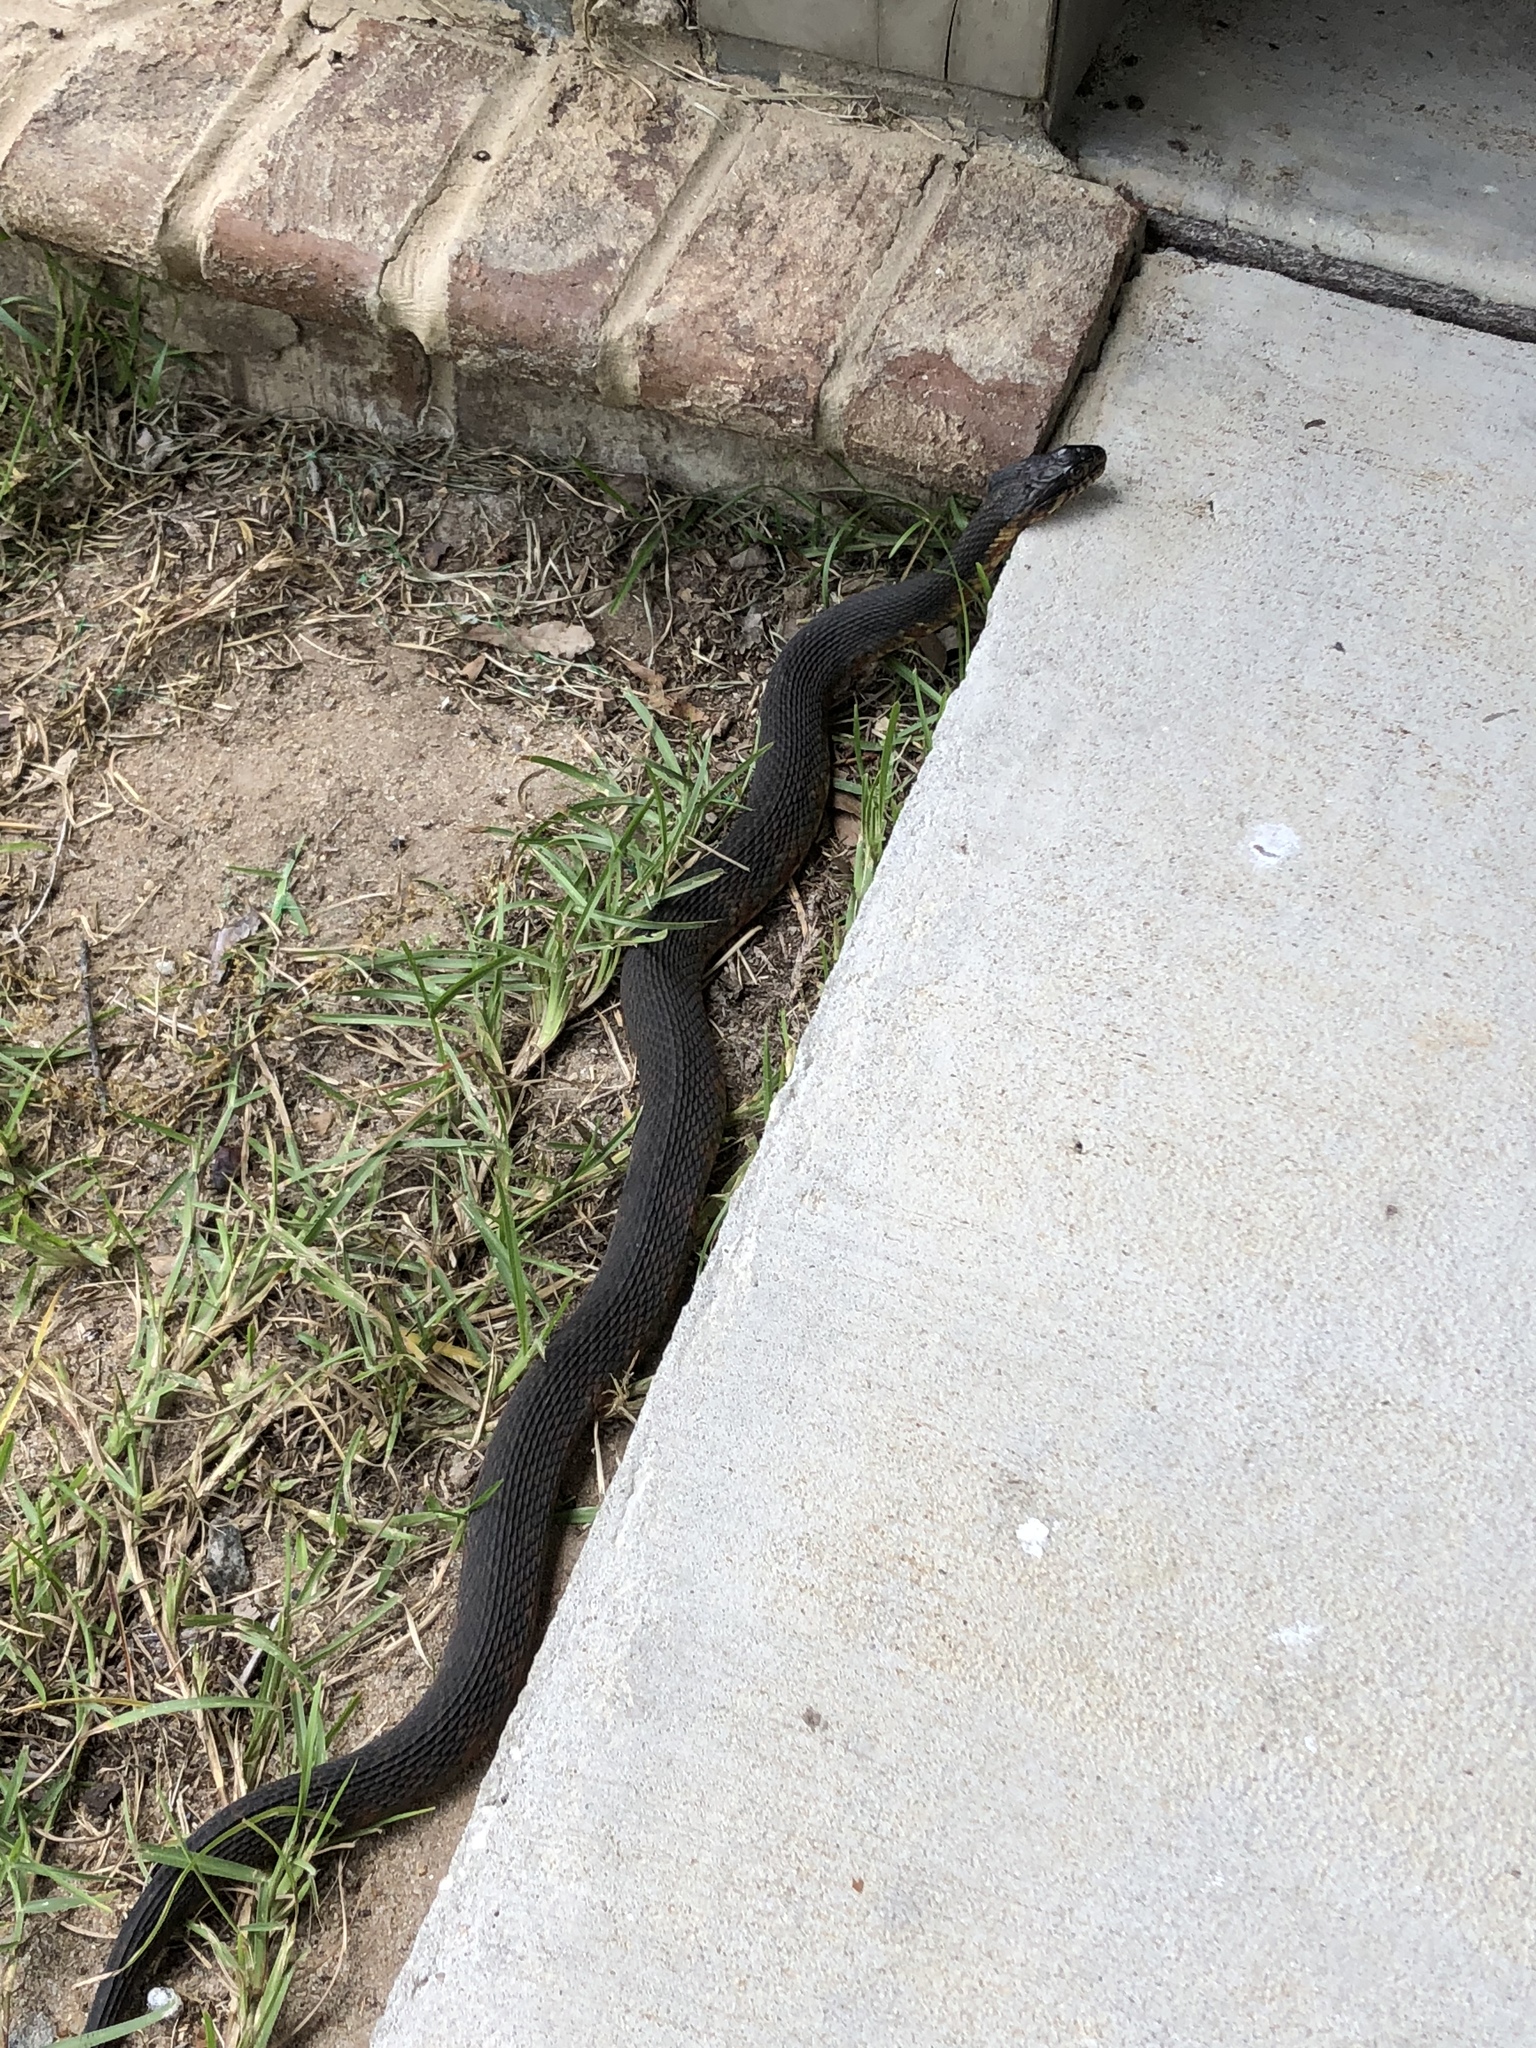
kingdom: Animalia
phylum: Chordata
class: Squamata
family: Colubridae
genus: Nerodia
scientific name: Nerodia fasciata
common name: Southern water snake
